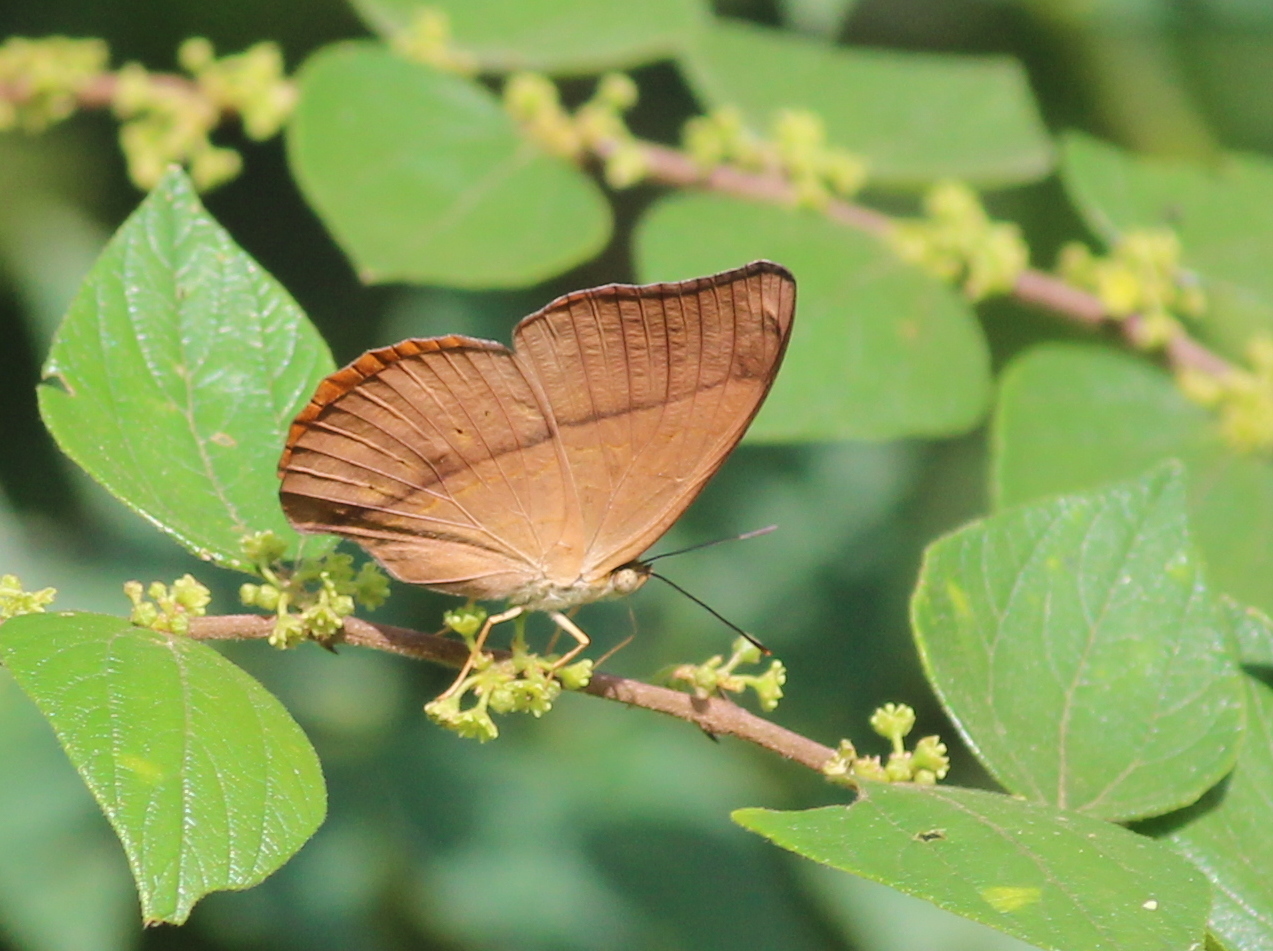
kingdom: Animalia
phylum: Arthropoda
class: Insecta
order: Lepidoptera
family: Nymphalidae
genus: Cirrochroa
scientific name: Cirrochroa thais
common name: Tamil yeoman
